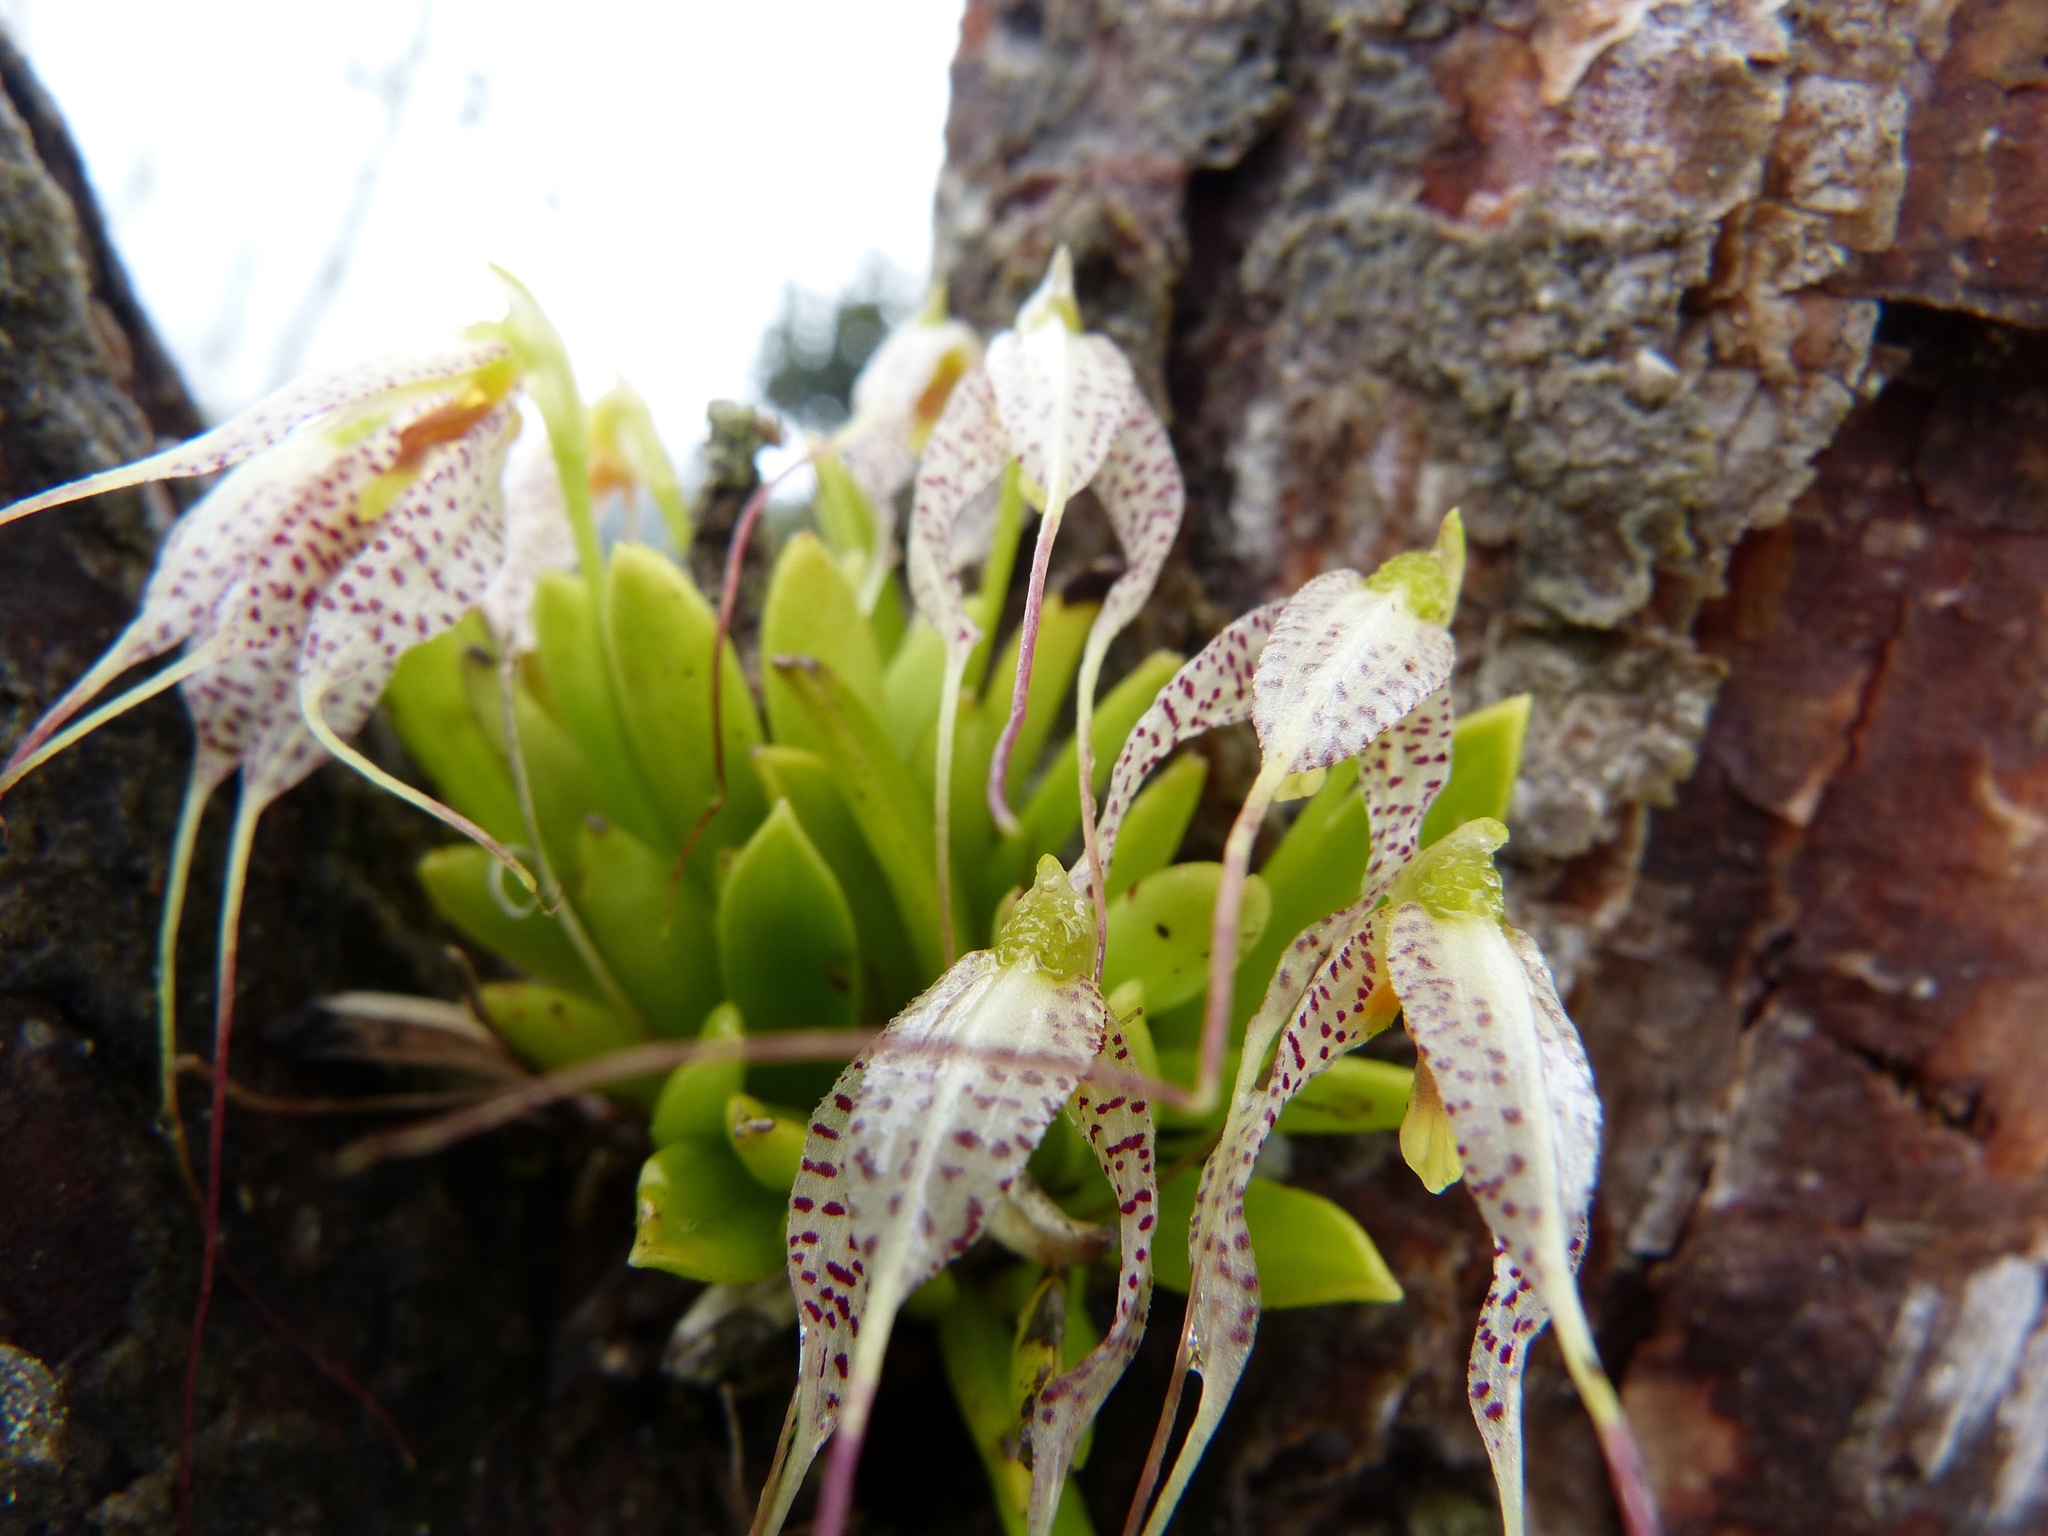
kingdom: Plantae
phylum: Tracheophyta
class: Liliopsida
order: Asparagales
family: Orchidaceae
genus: Masdevallia
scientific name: Masdevallia picturata
